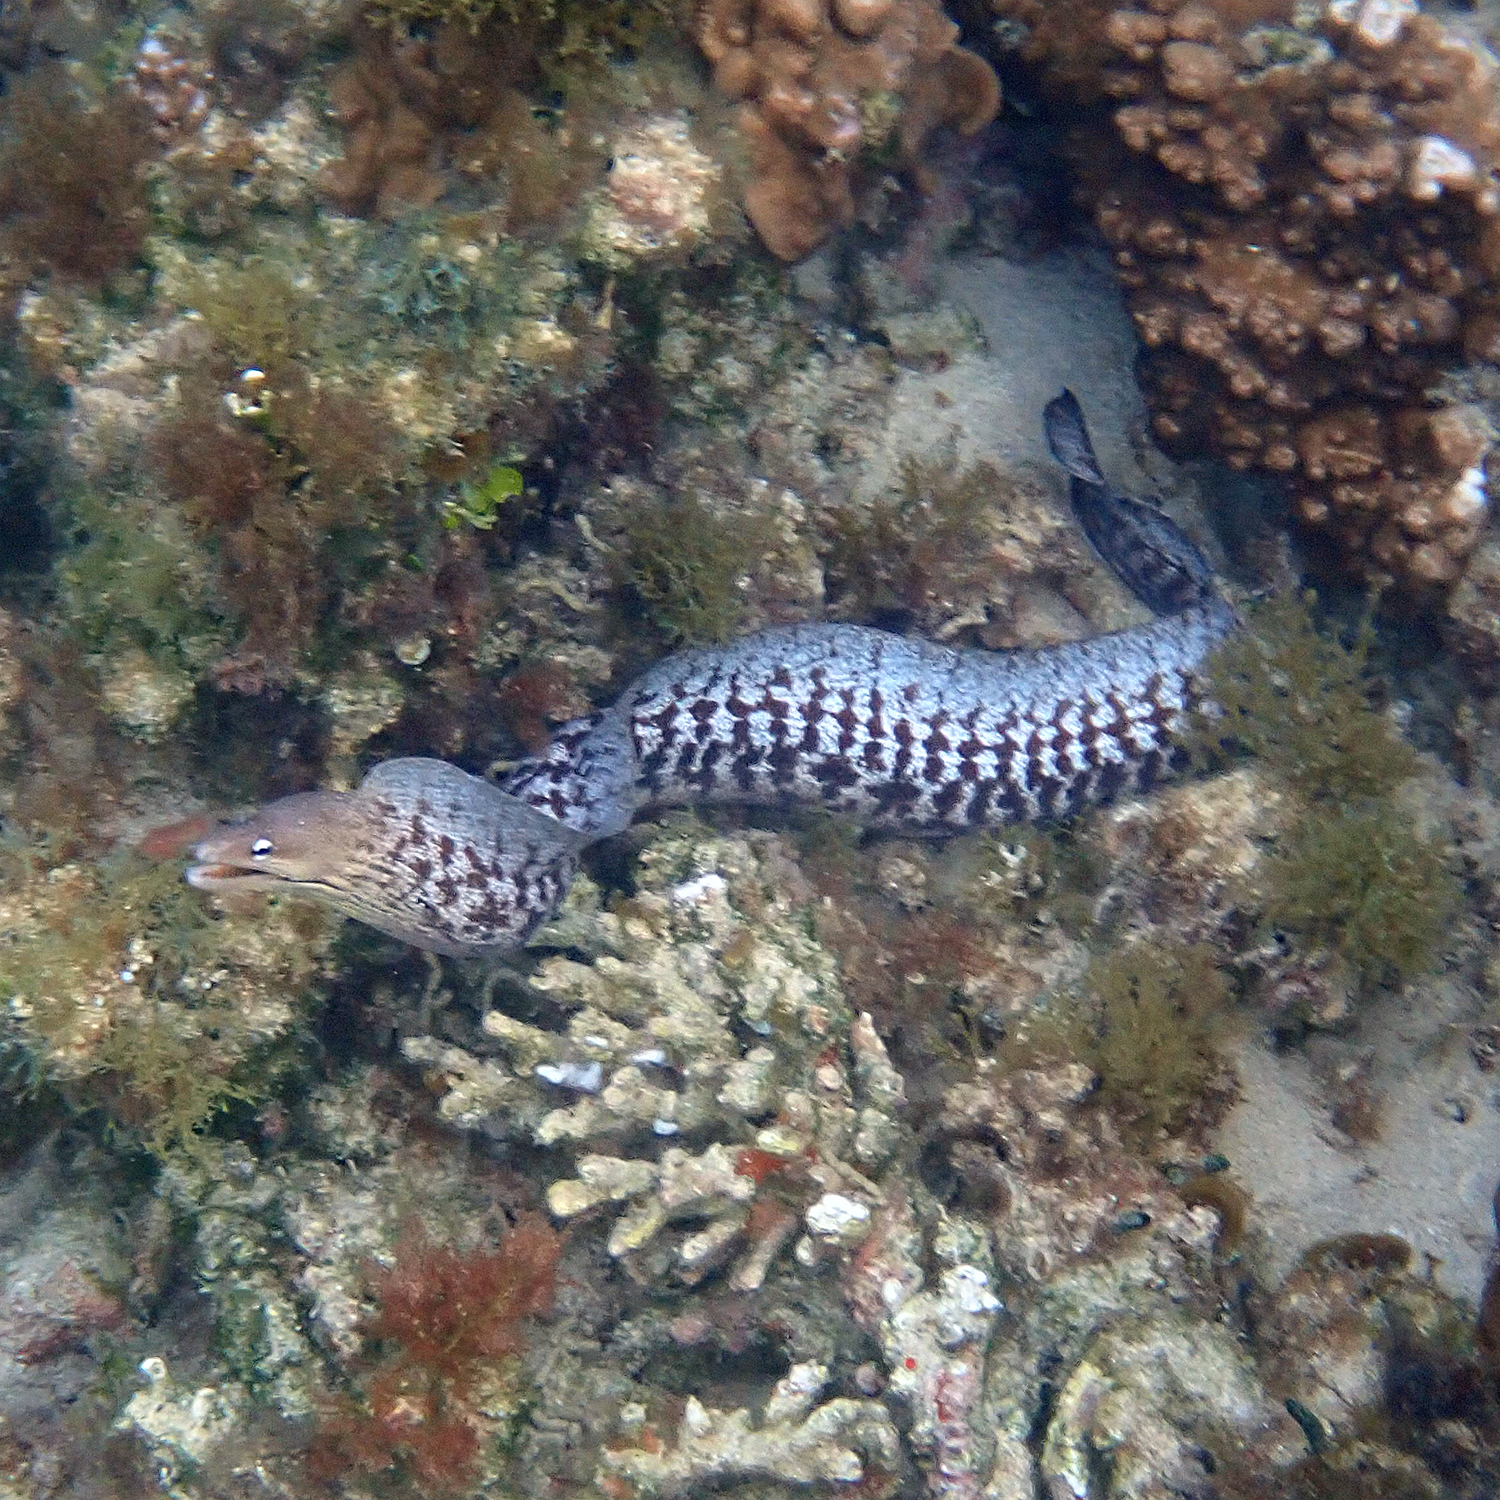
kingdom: Animalia
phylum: Chordata
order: Anguilliformes
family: Muraenidae
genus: Gymnothorax
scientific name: Gymnothorax nubilus
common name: Grey moray
